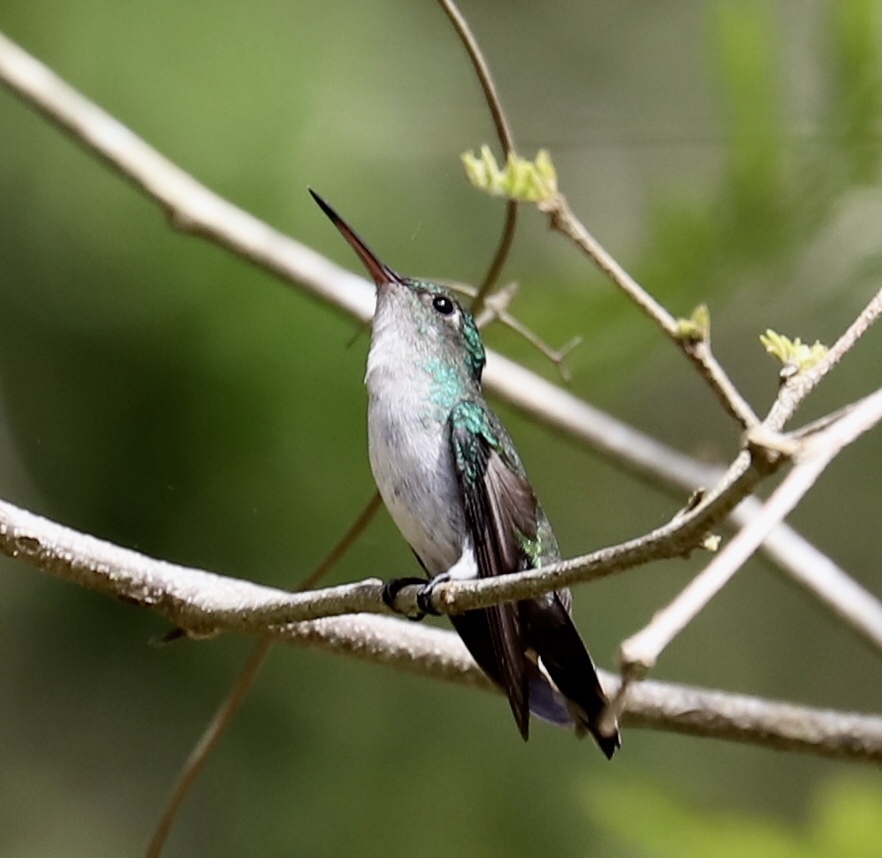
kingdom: Animalia
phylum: Chordata
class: Aves
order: Apodiformes
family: Trochilidae
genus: Chlorestes
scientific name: Chlorestes julie
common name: Violet-bellied hummingbird
